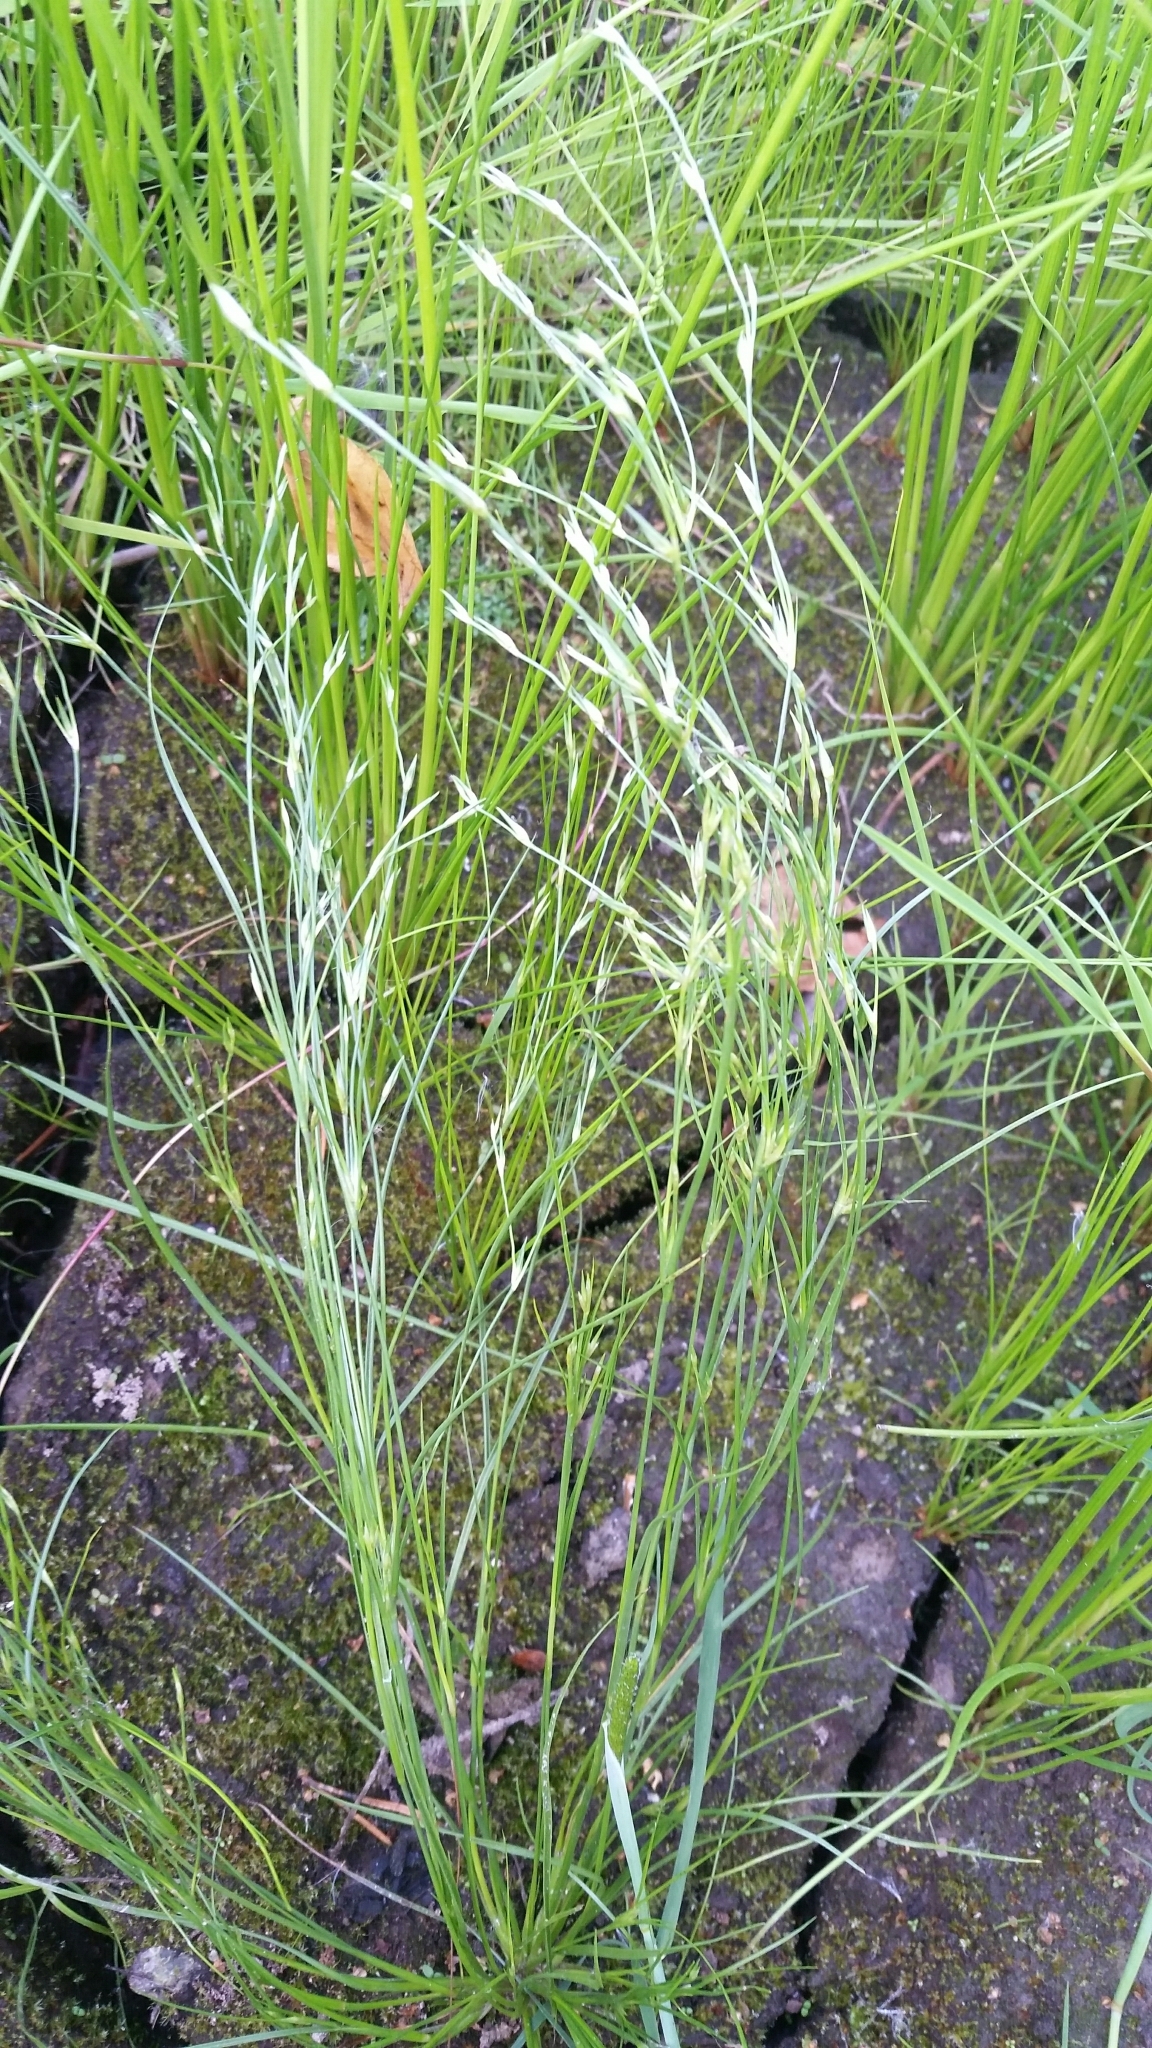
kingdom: Plantae
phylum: Tracheophyta
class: Liliopsida
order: Poales
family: Juncaceae
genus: Juncus
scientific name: Juncus bufonius
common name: Toad rush
